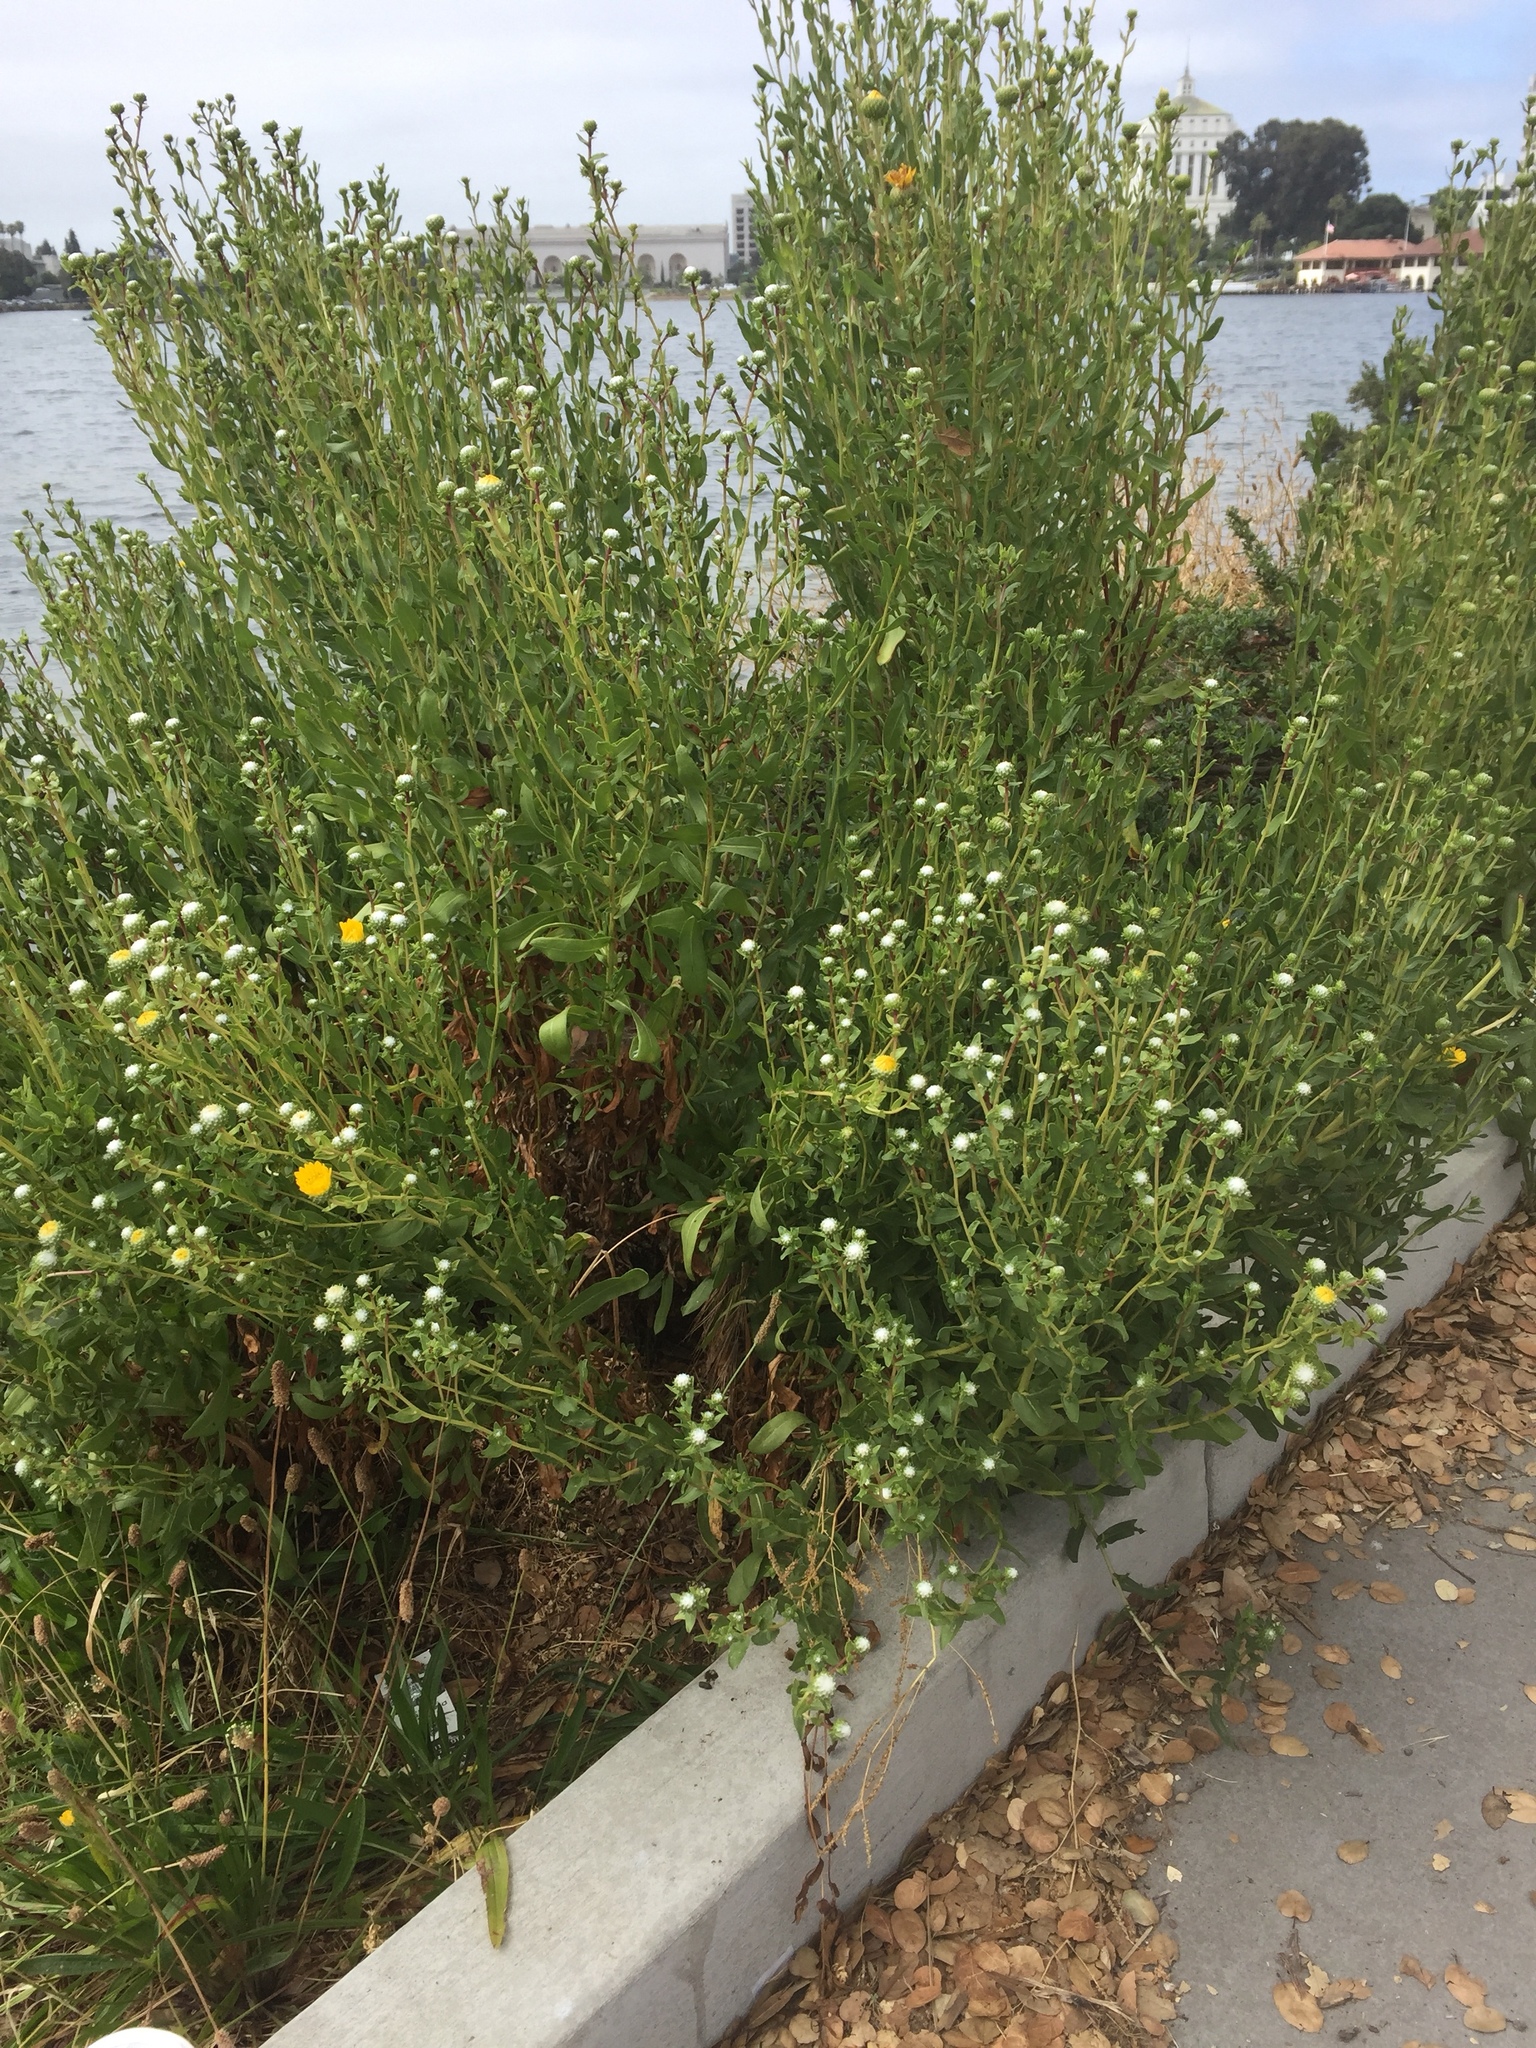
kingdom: Plantae
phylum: Tracheophyta
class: Magnoliopsida
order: Asterales
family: Asteraceae
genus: Grindelia
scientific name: Grindelia hirsutula
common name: Hairy gumweed
